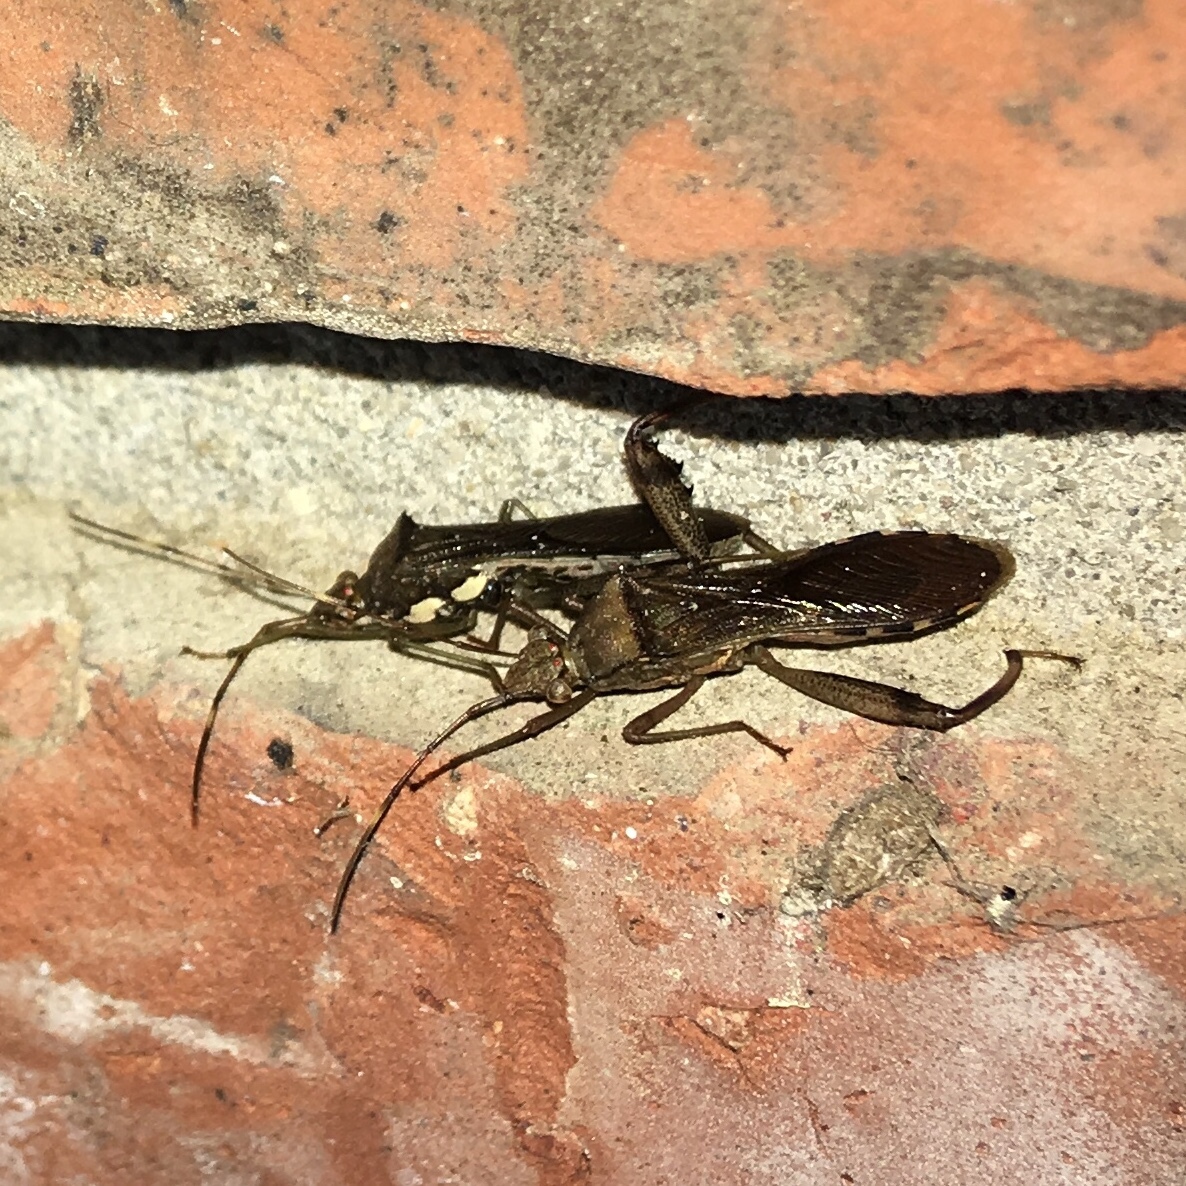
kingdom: Animalia
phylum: Arthropoda
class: Insecta
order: Hemiptera
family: Alydidae
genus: Hyalymenus
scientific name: Hyalymenus tarsatus
